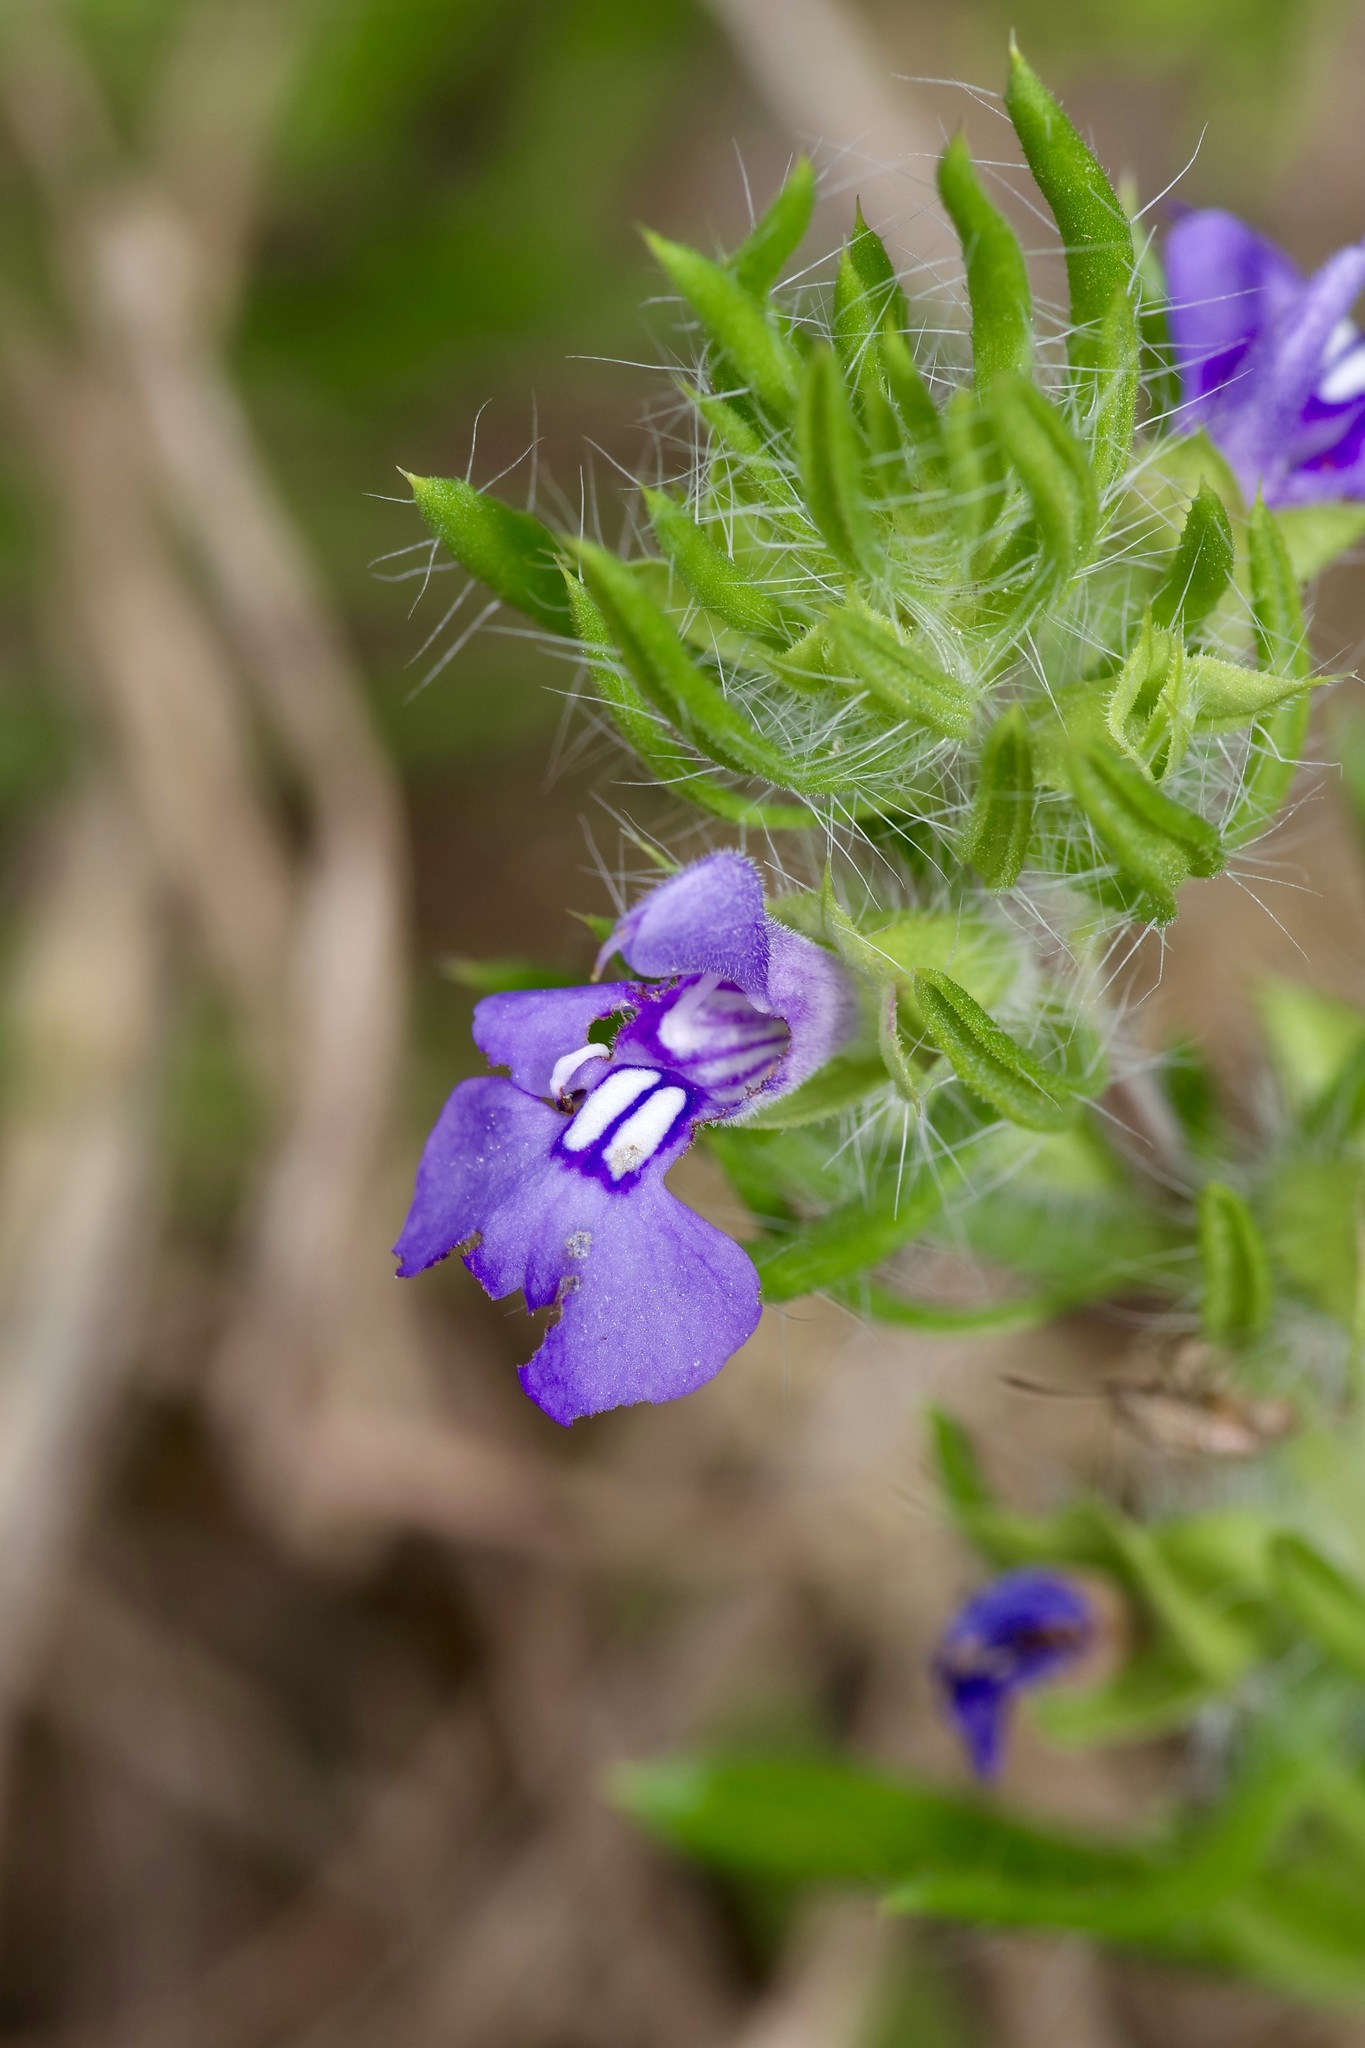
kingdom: Plantae
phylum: Tracheophyta
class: Magnoliopsida
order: Lamiales
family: Lamiaceae
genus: Salvia
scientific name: Salvia texana
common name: Texas sage
